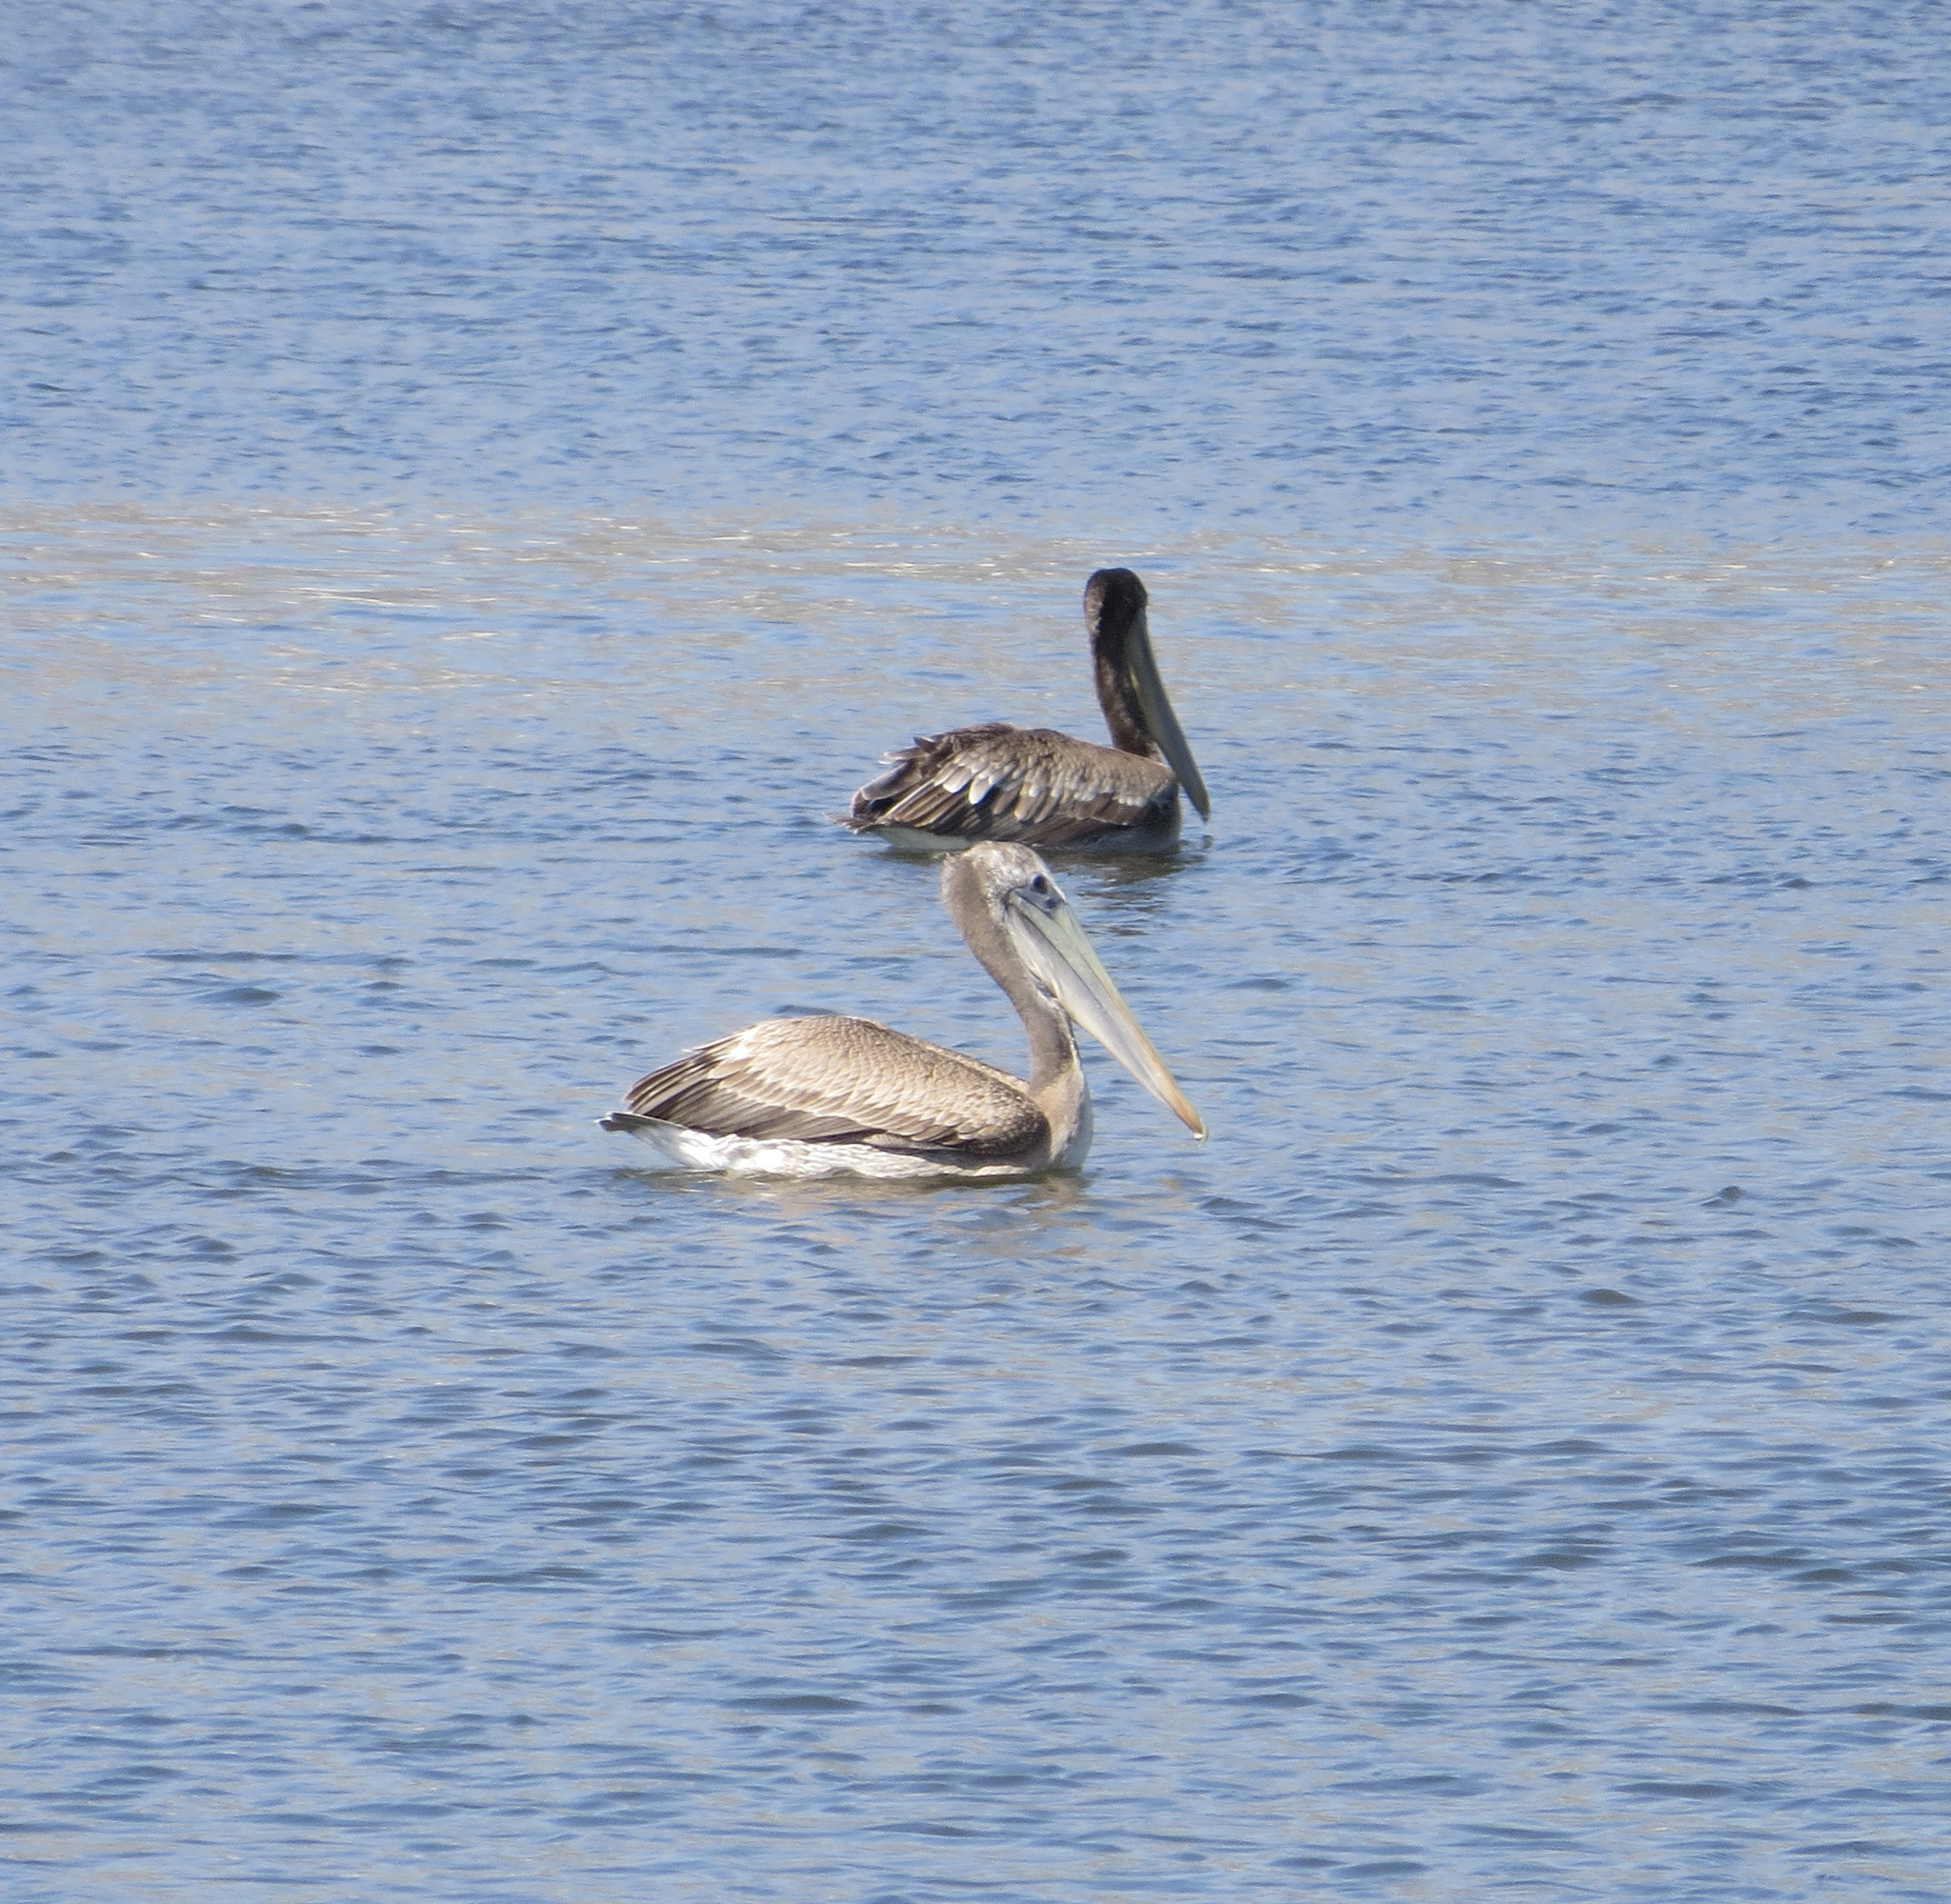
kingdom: Animalia
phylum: Chordata
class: Aves
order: Pelecaniformes
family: Pelecanidae
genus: Pelecanus
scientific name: Pelecanus occidentalis
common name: Brown pelican
